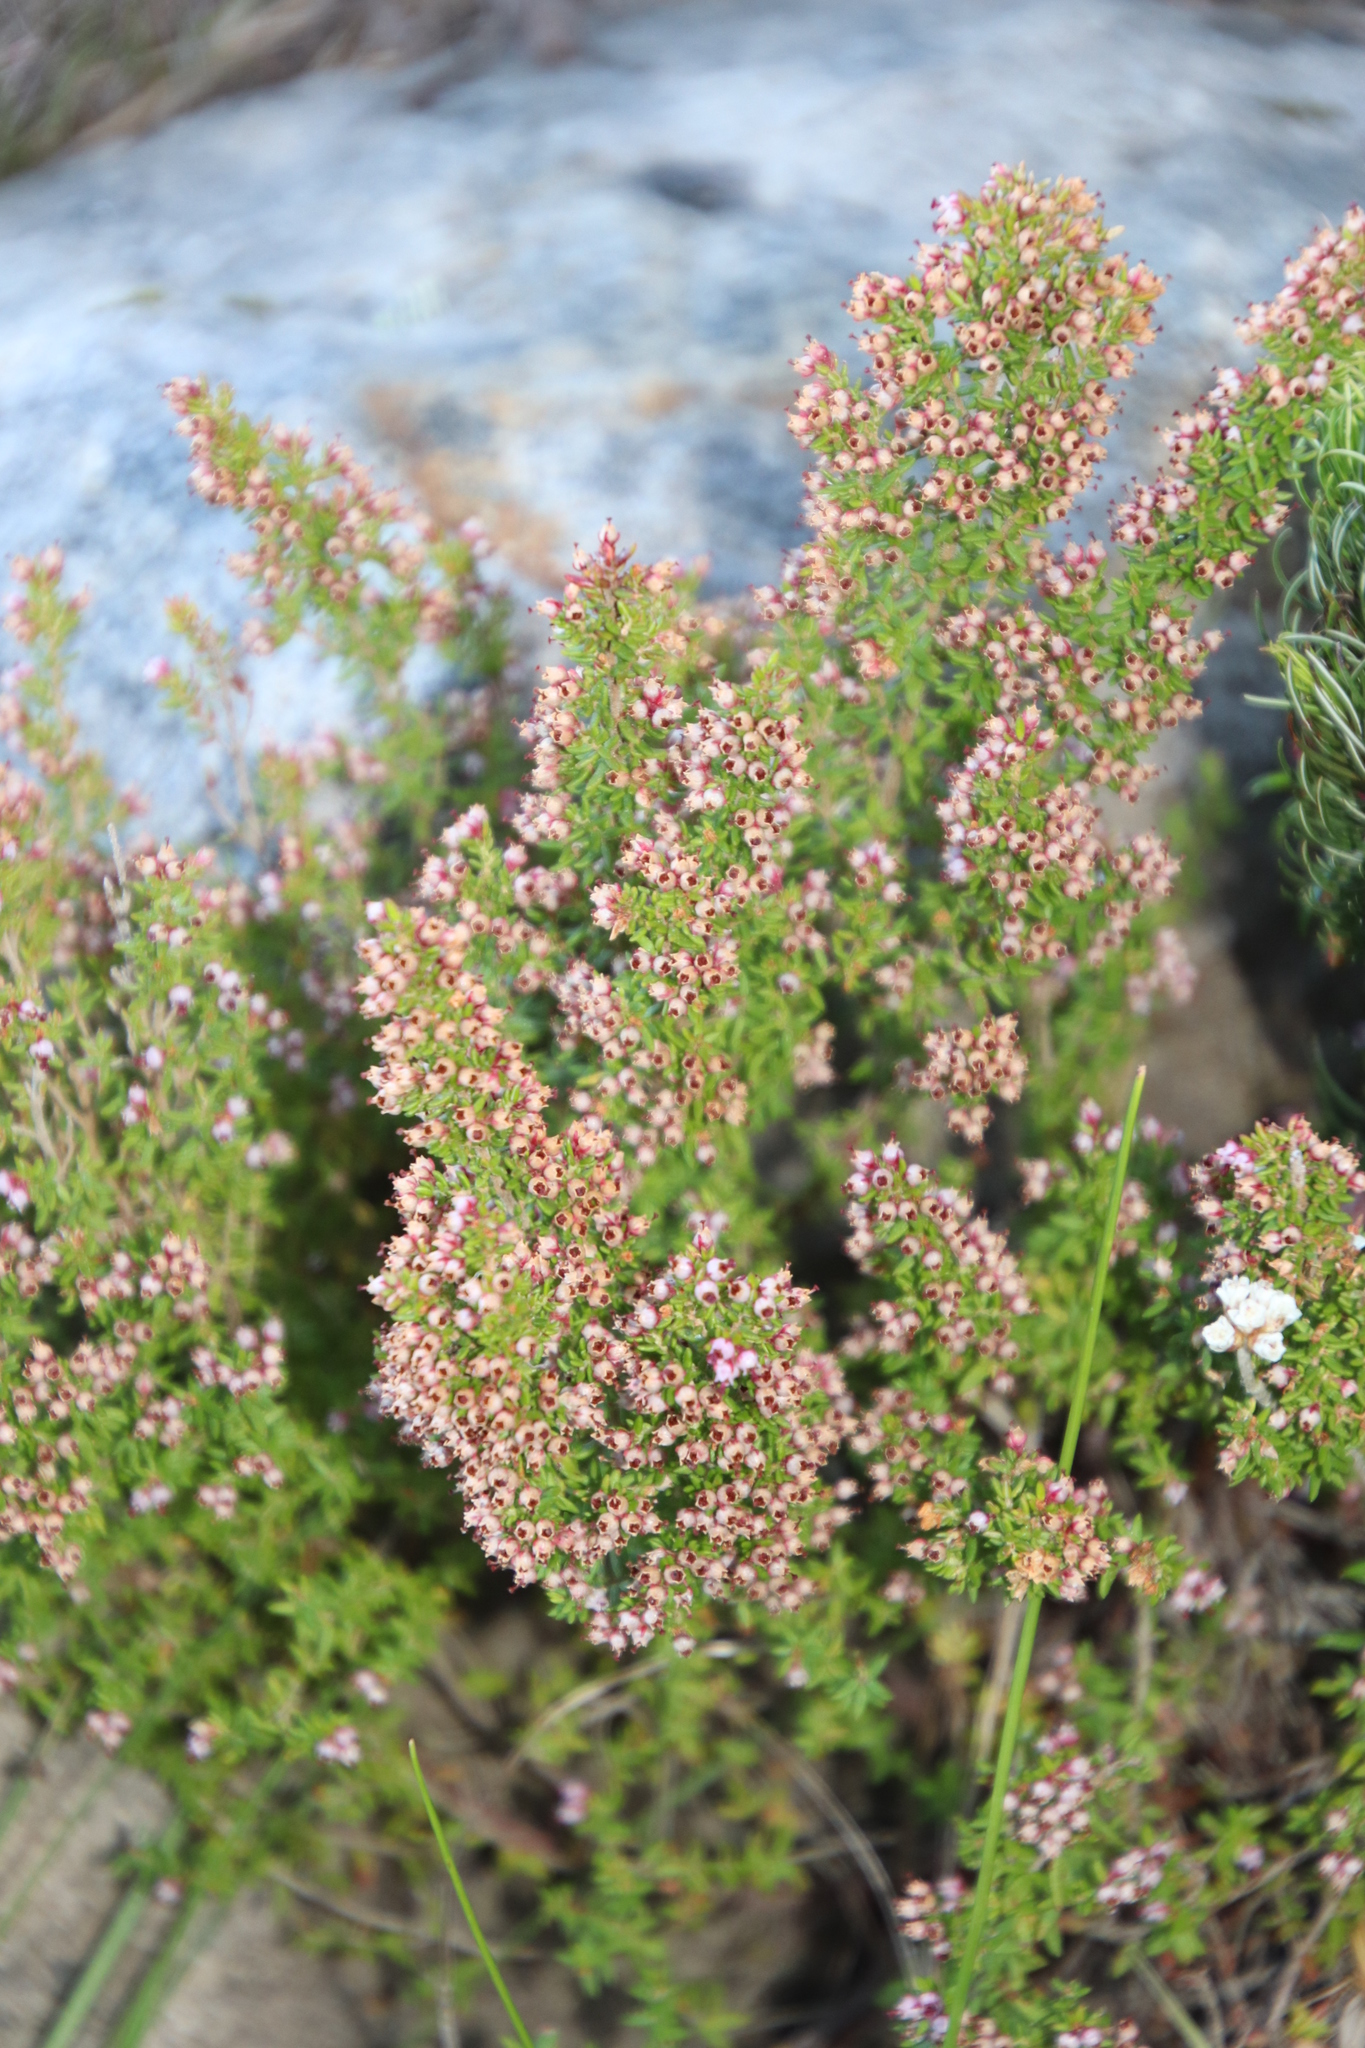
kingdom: Plantae
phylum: Tracheophyta
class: Magnoliopsida
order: Ericales
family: Ericaceae
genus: Erica
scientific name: Erica hispidula
